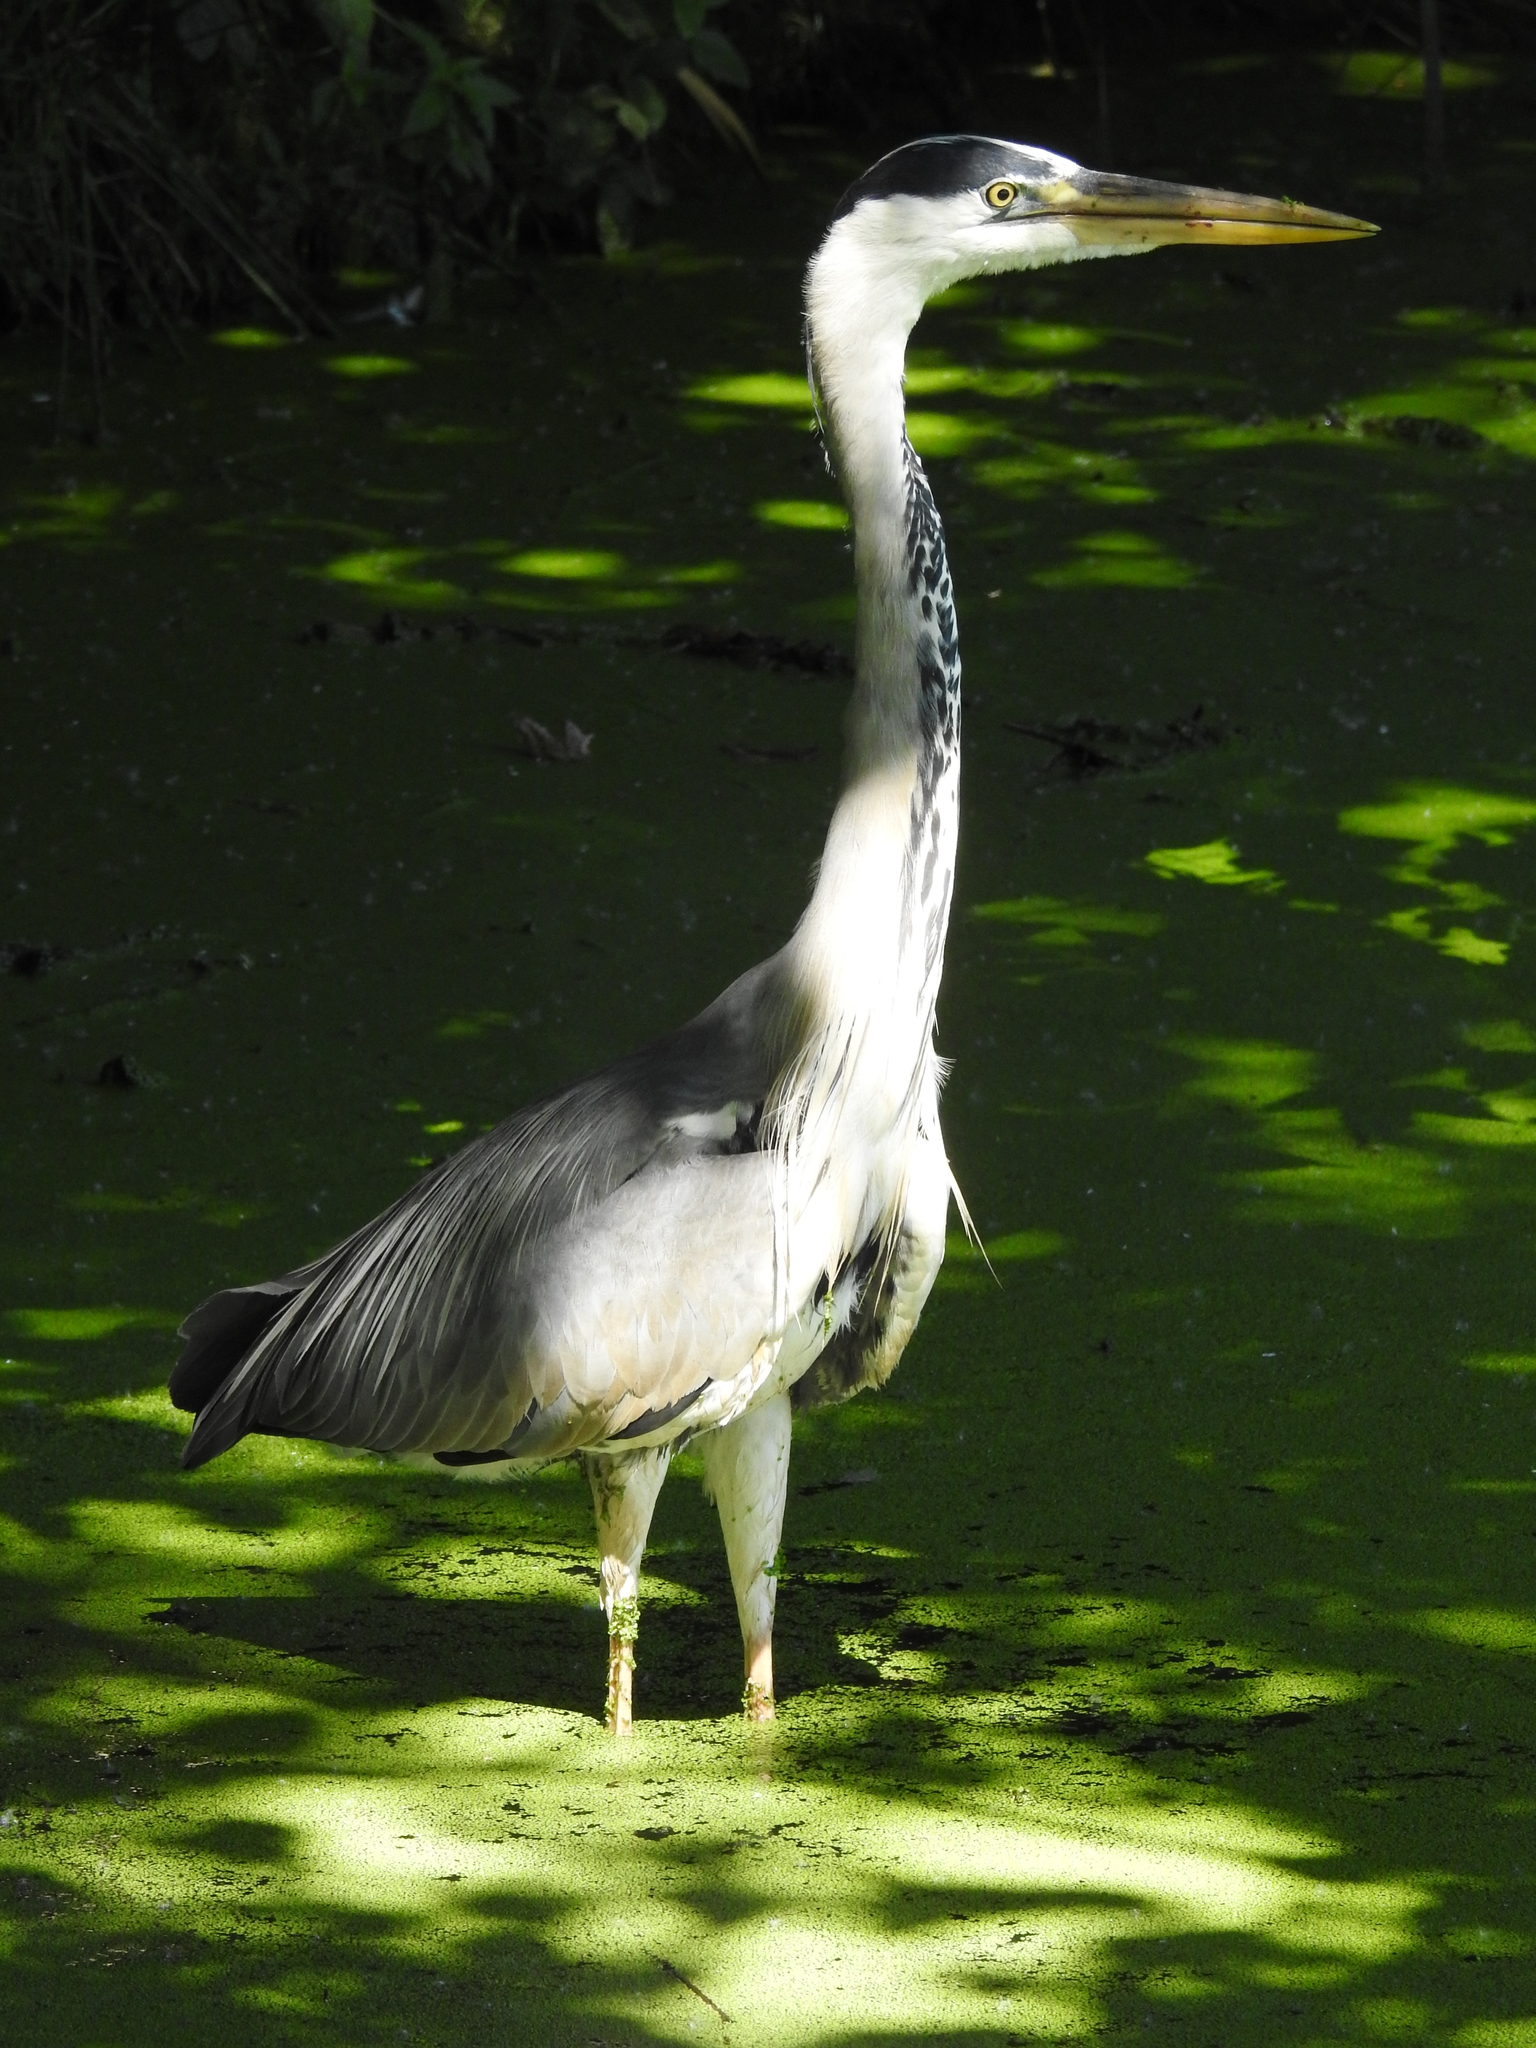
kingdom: Animalia
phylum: Chordata
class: Aves
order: Pelecaniformes
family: Ardeidae
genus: Ardea
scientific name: Ardea cinerea
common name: Grey heron
